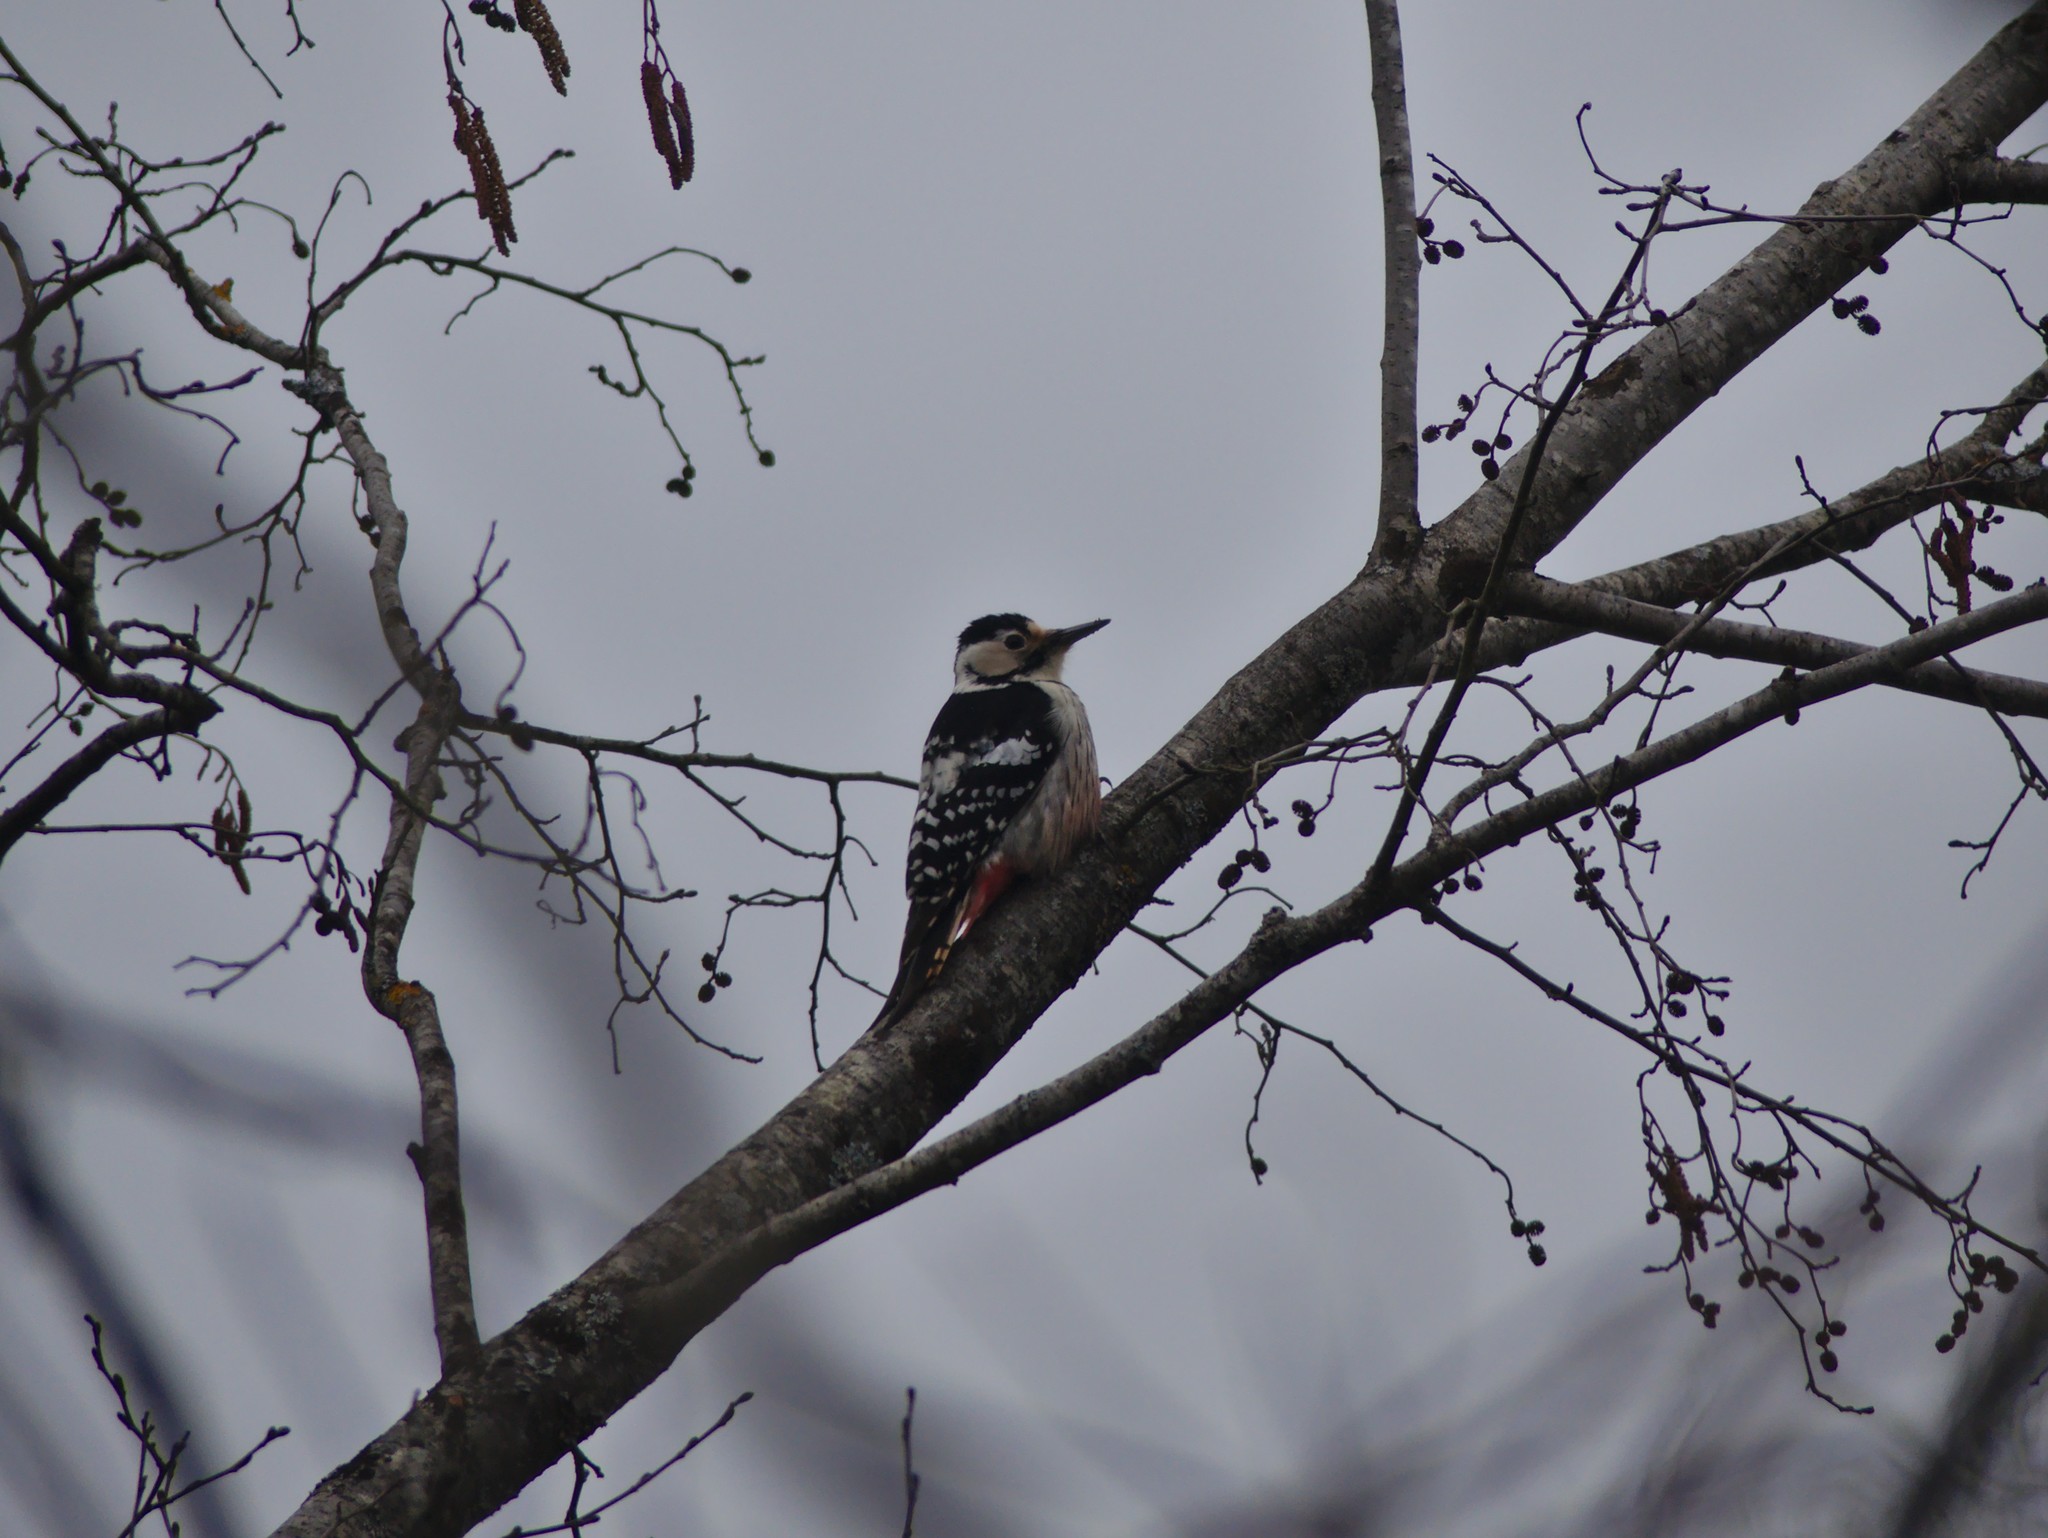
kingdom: Animalia
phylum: Chordata
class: Aves
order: Piciformes
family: Picidae
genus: Dendrocopos
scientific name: Dendrocopos leucotos
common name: White-backed woodpecker
